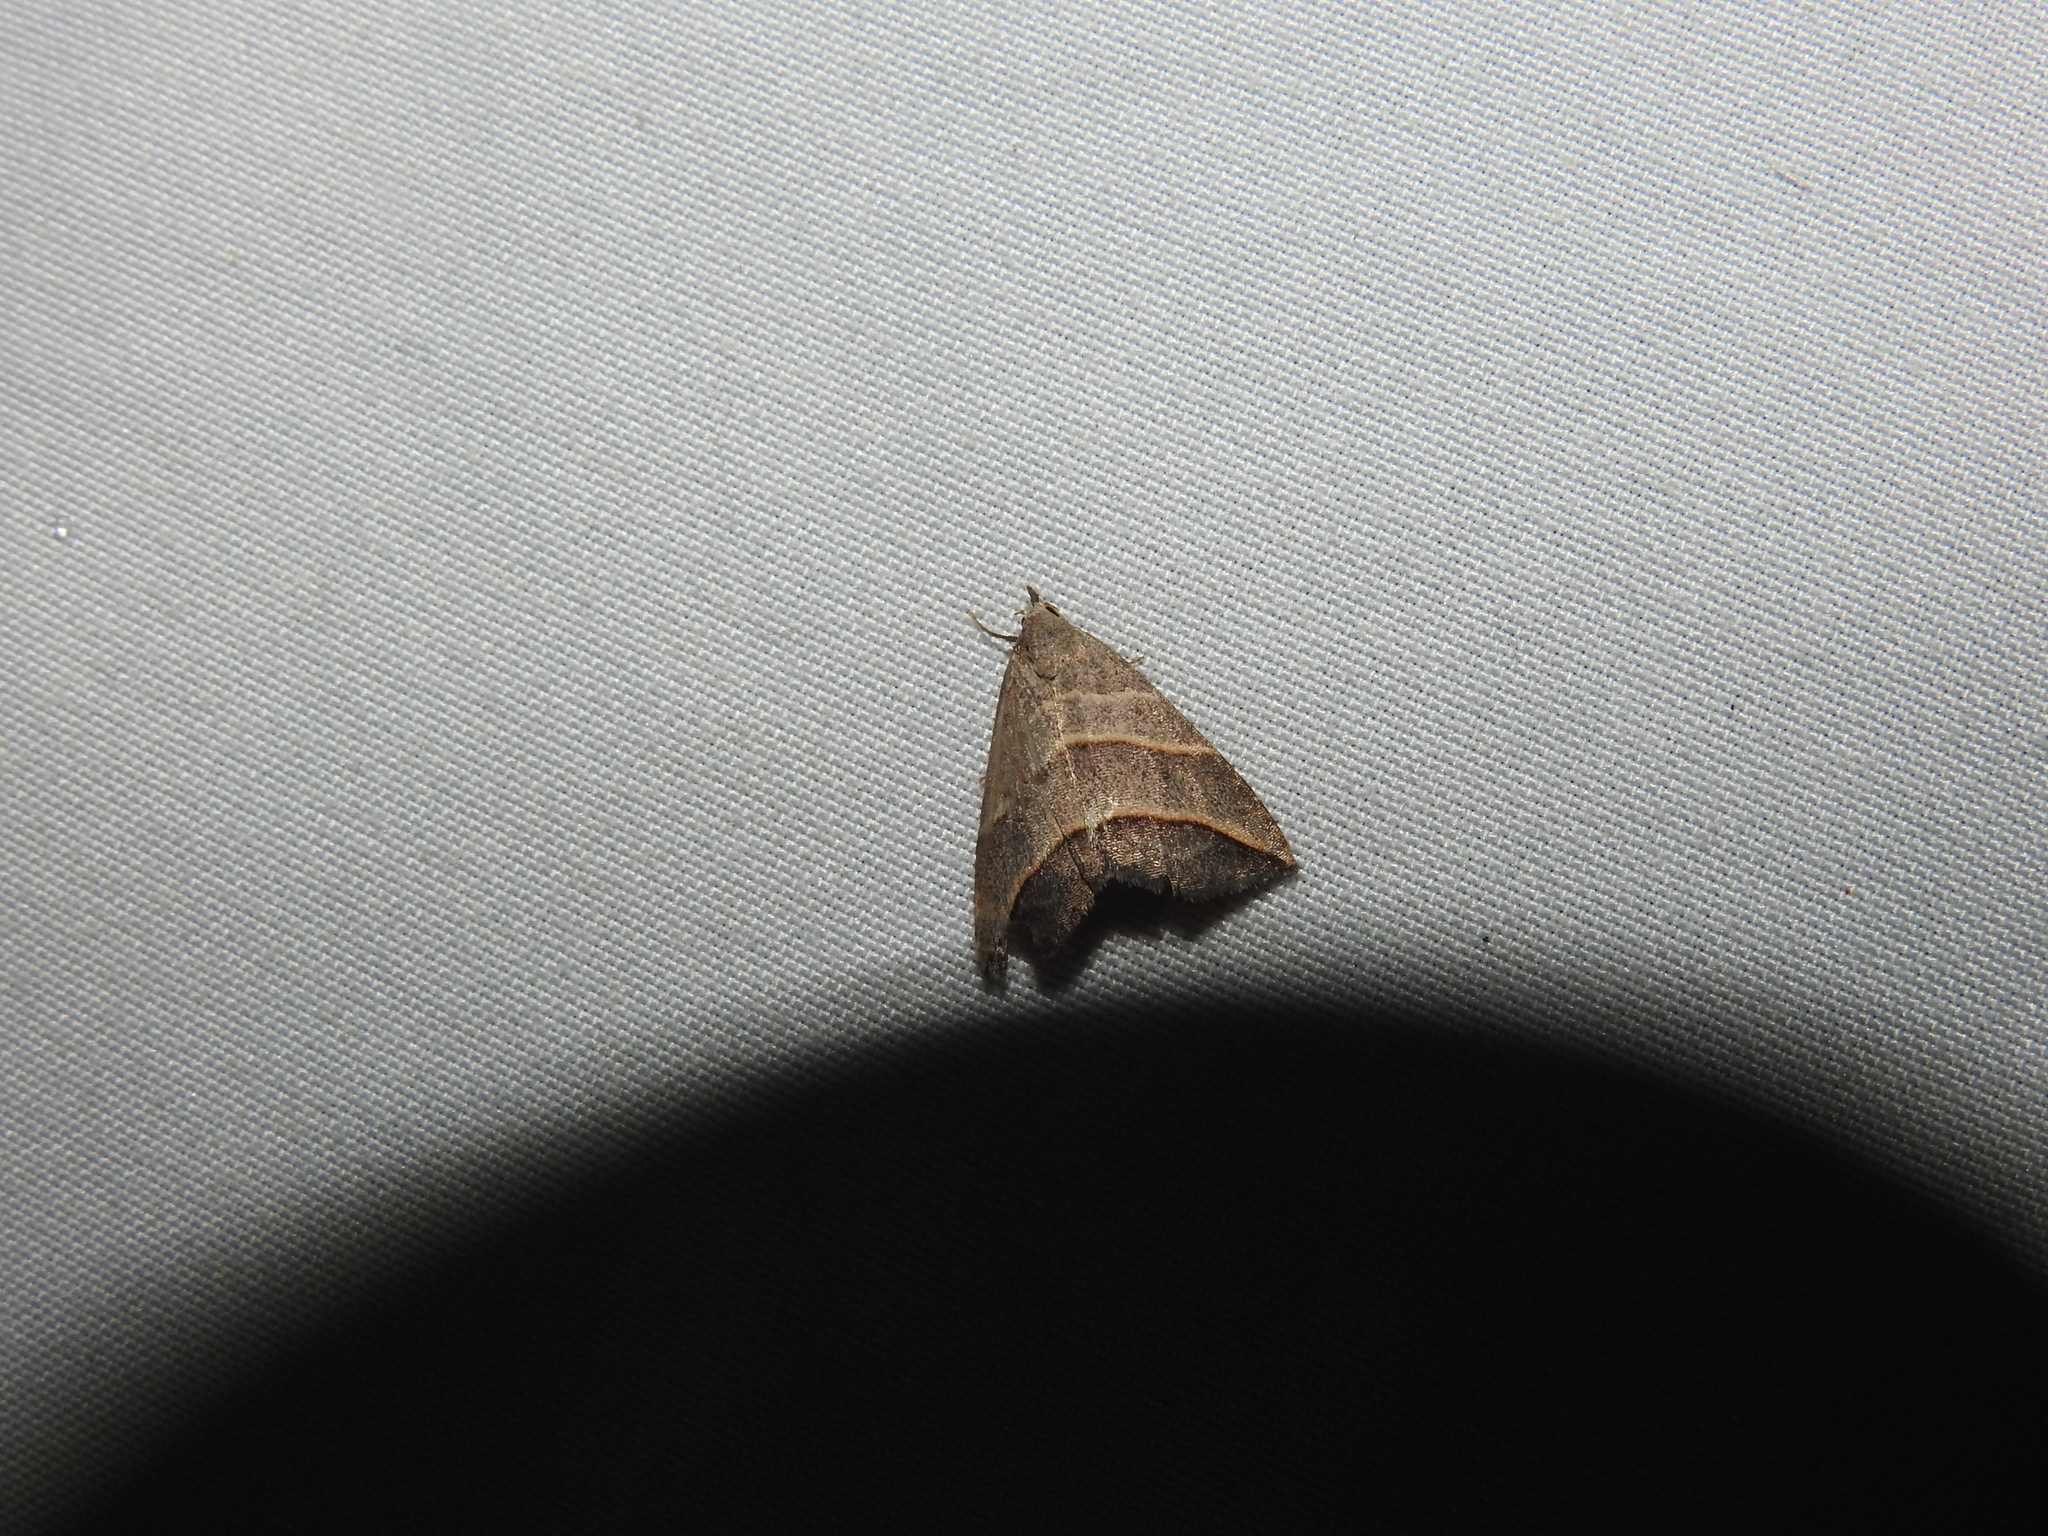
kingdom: Animalia
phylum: Arthropoda
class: Insecta
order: Lepidoptera
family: Erebidae
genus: Colobochyla
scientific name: Colobochyla interpuncta
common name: Yellow-lined owlet
